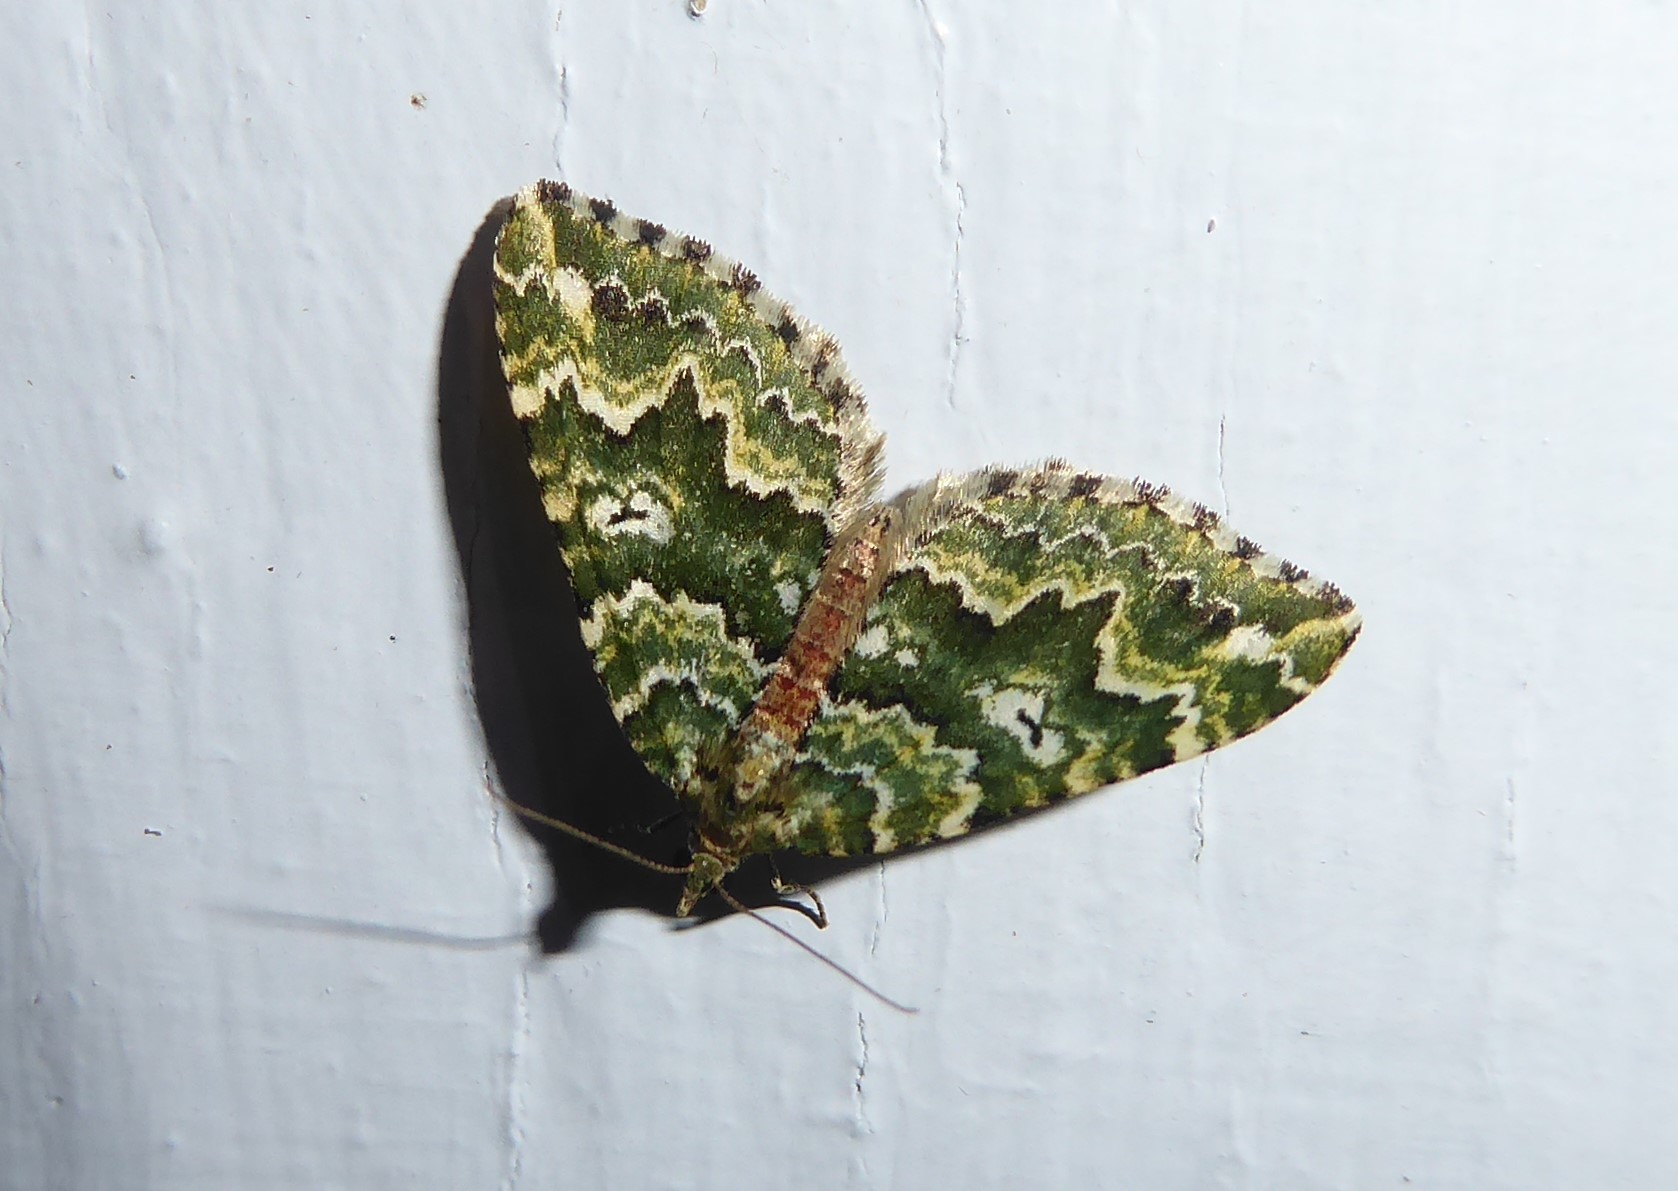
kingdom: Animalia
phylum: Arthropoda
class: Insecta
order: Lepidoptera
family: Geometridae
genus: Asaphodes
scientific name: Asaphodes beata
